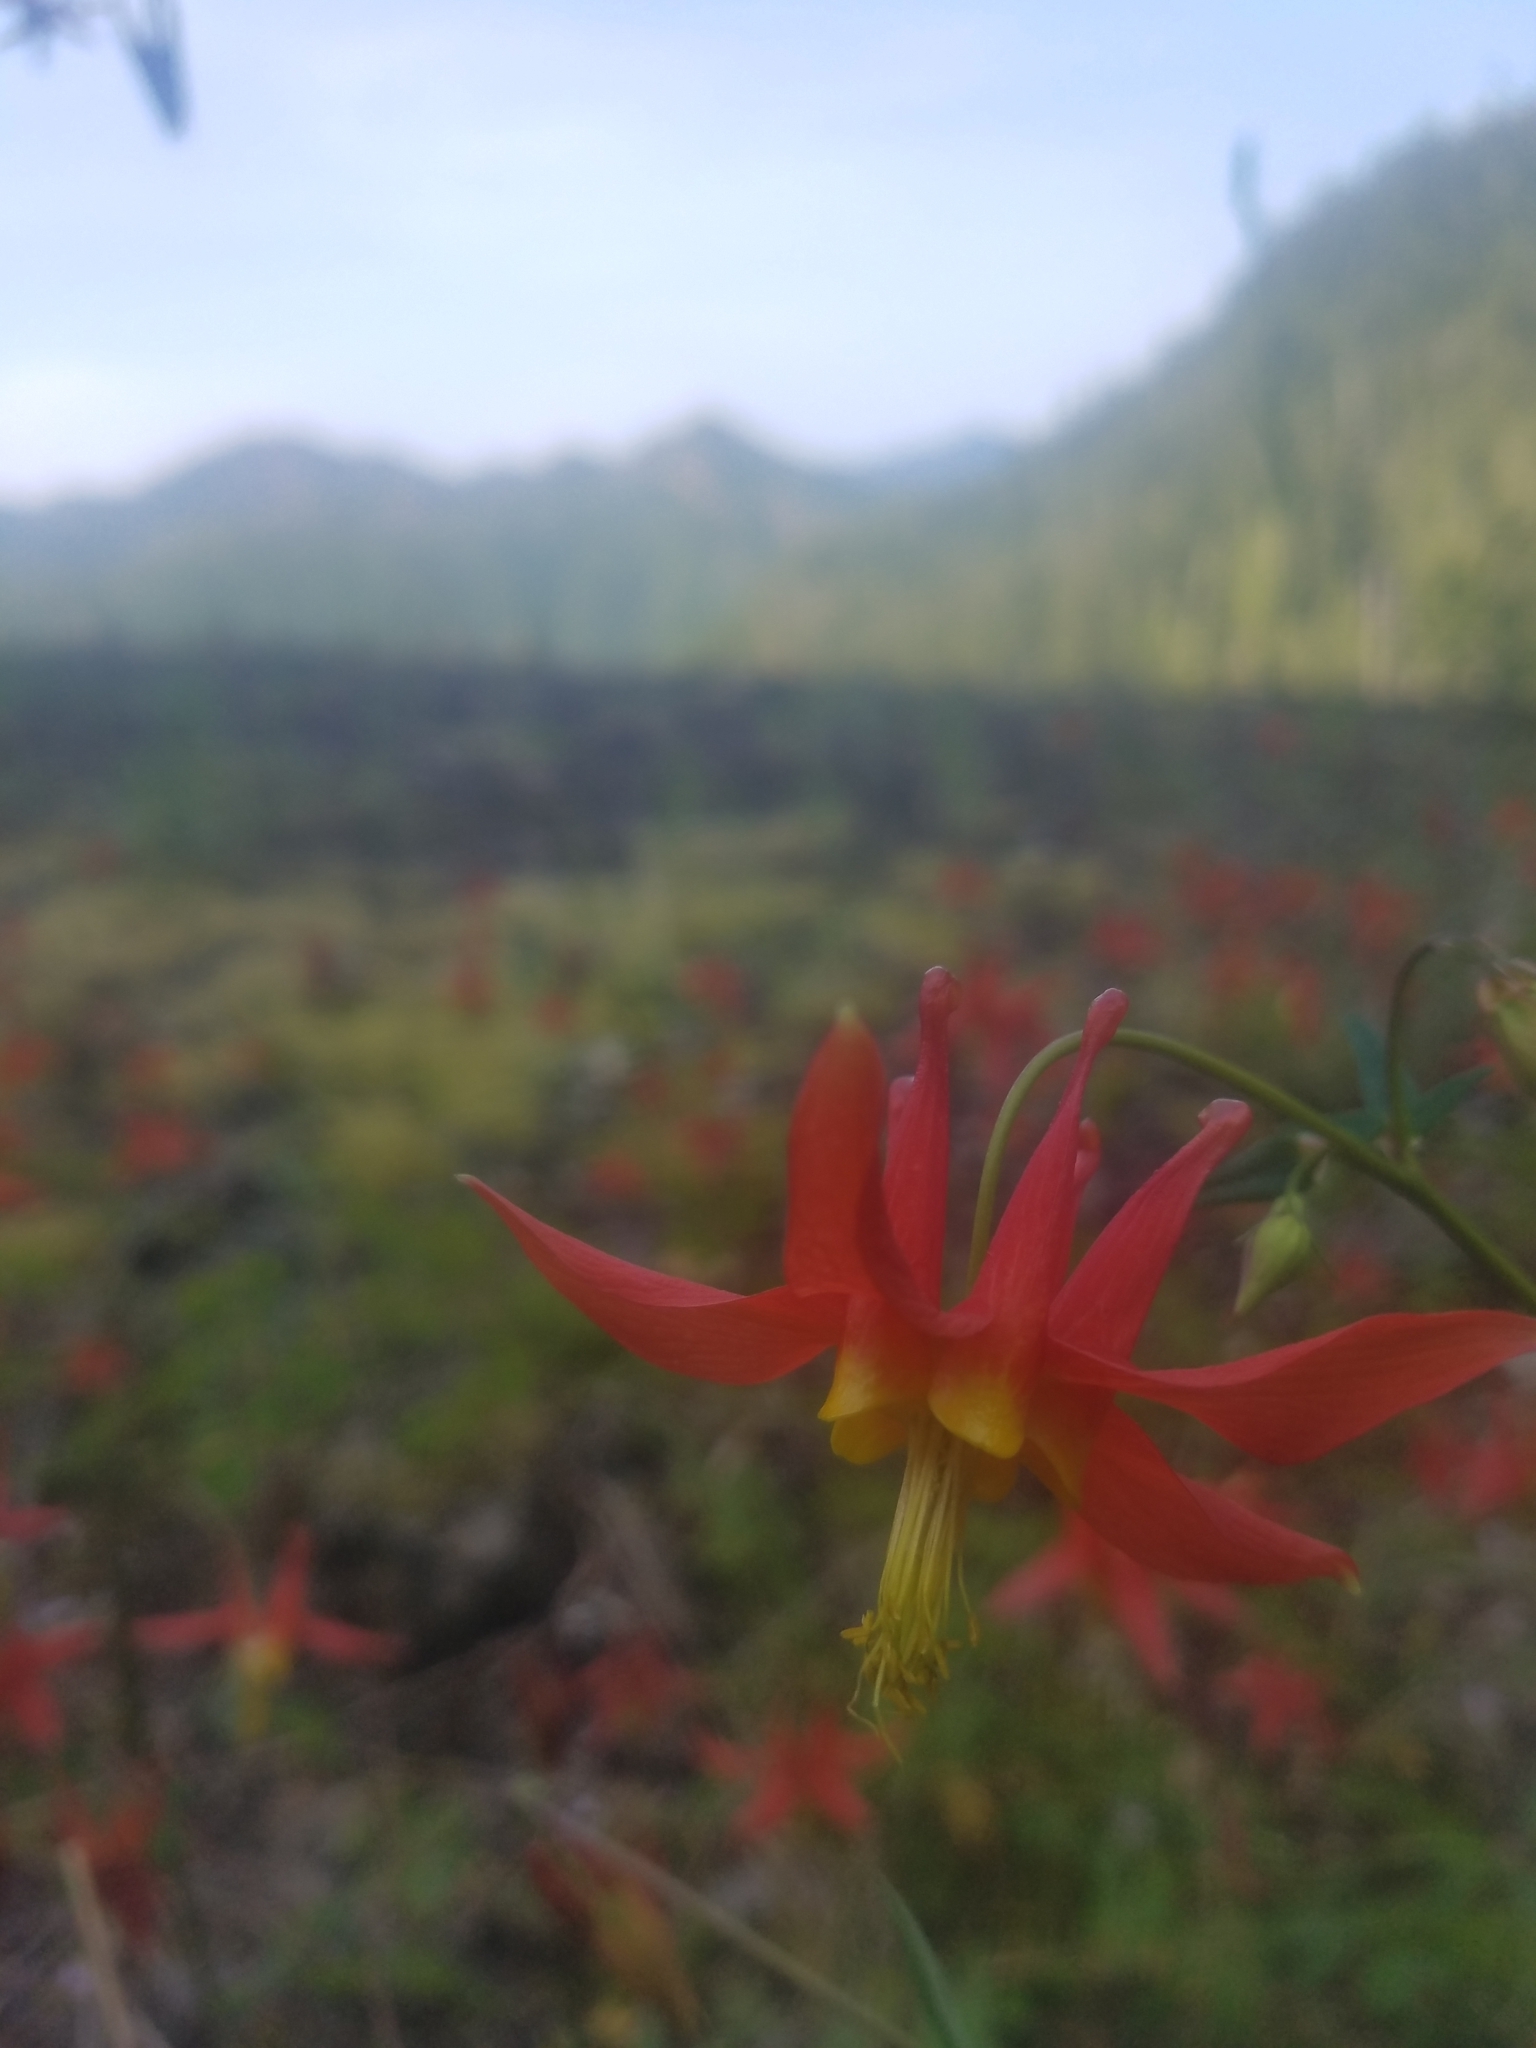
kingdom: Plantae
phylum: Tracheophyta
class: Magnoliopsida
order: Ranunculales
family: Ranunculaceae
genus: Aquilegia
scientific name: Aquilegia formosa
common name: Sitka columbine
